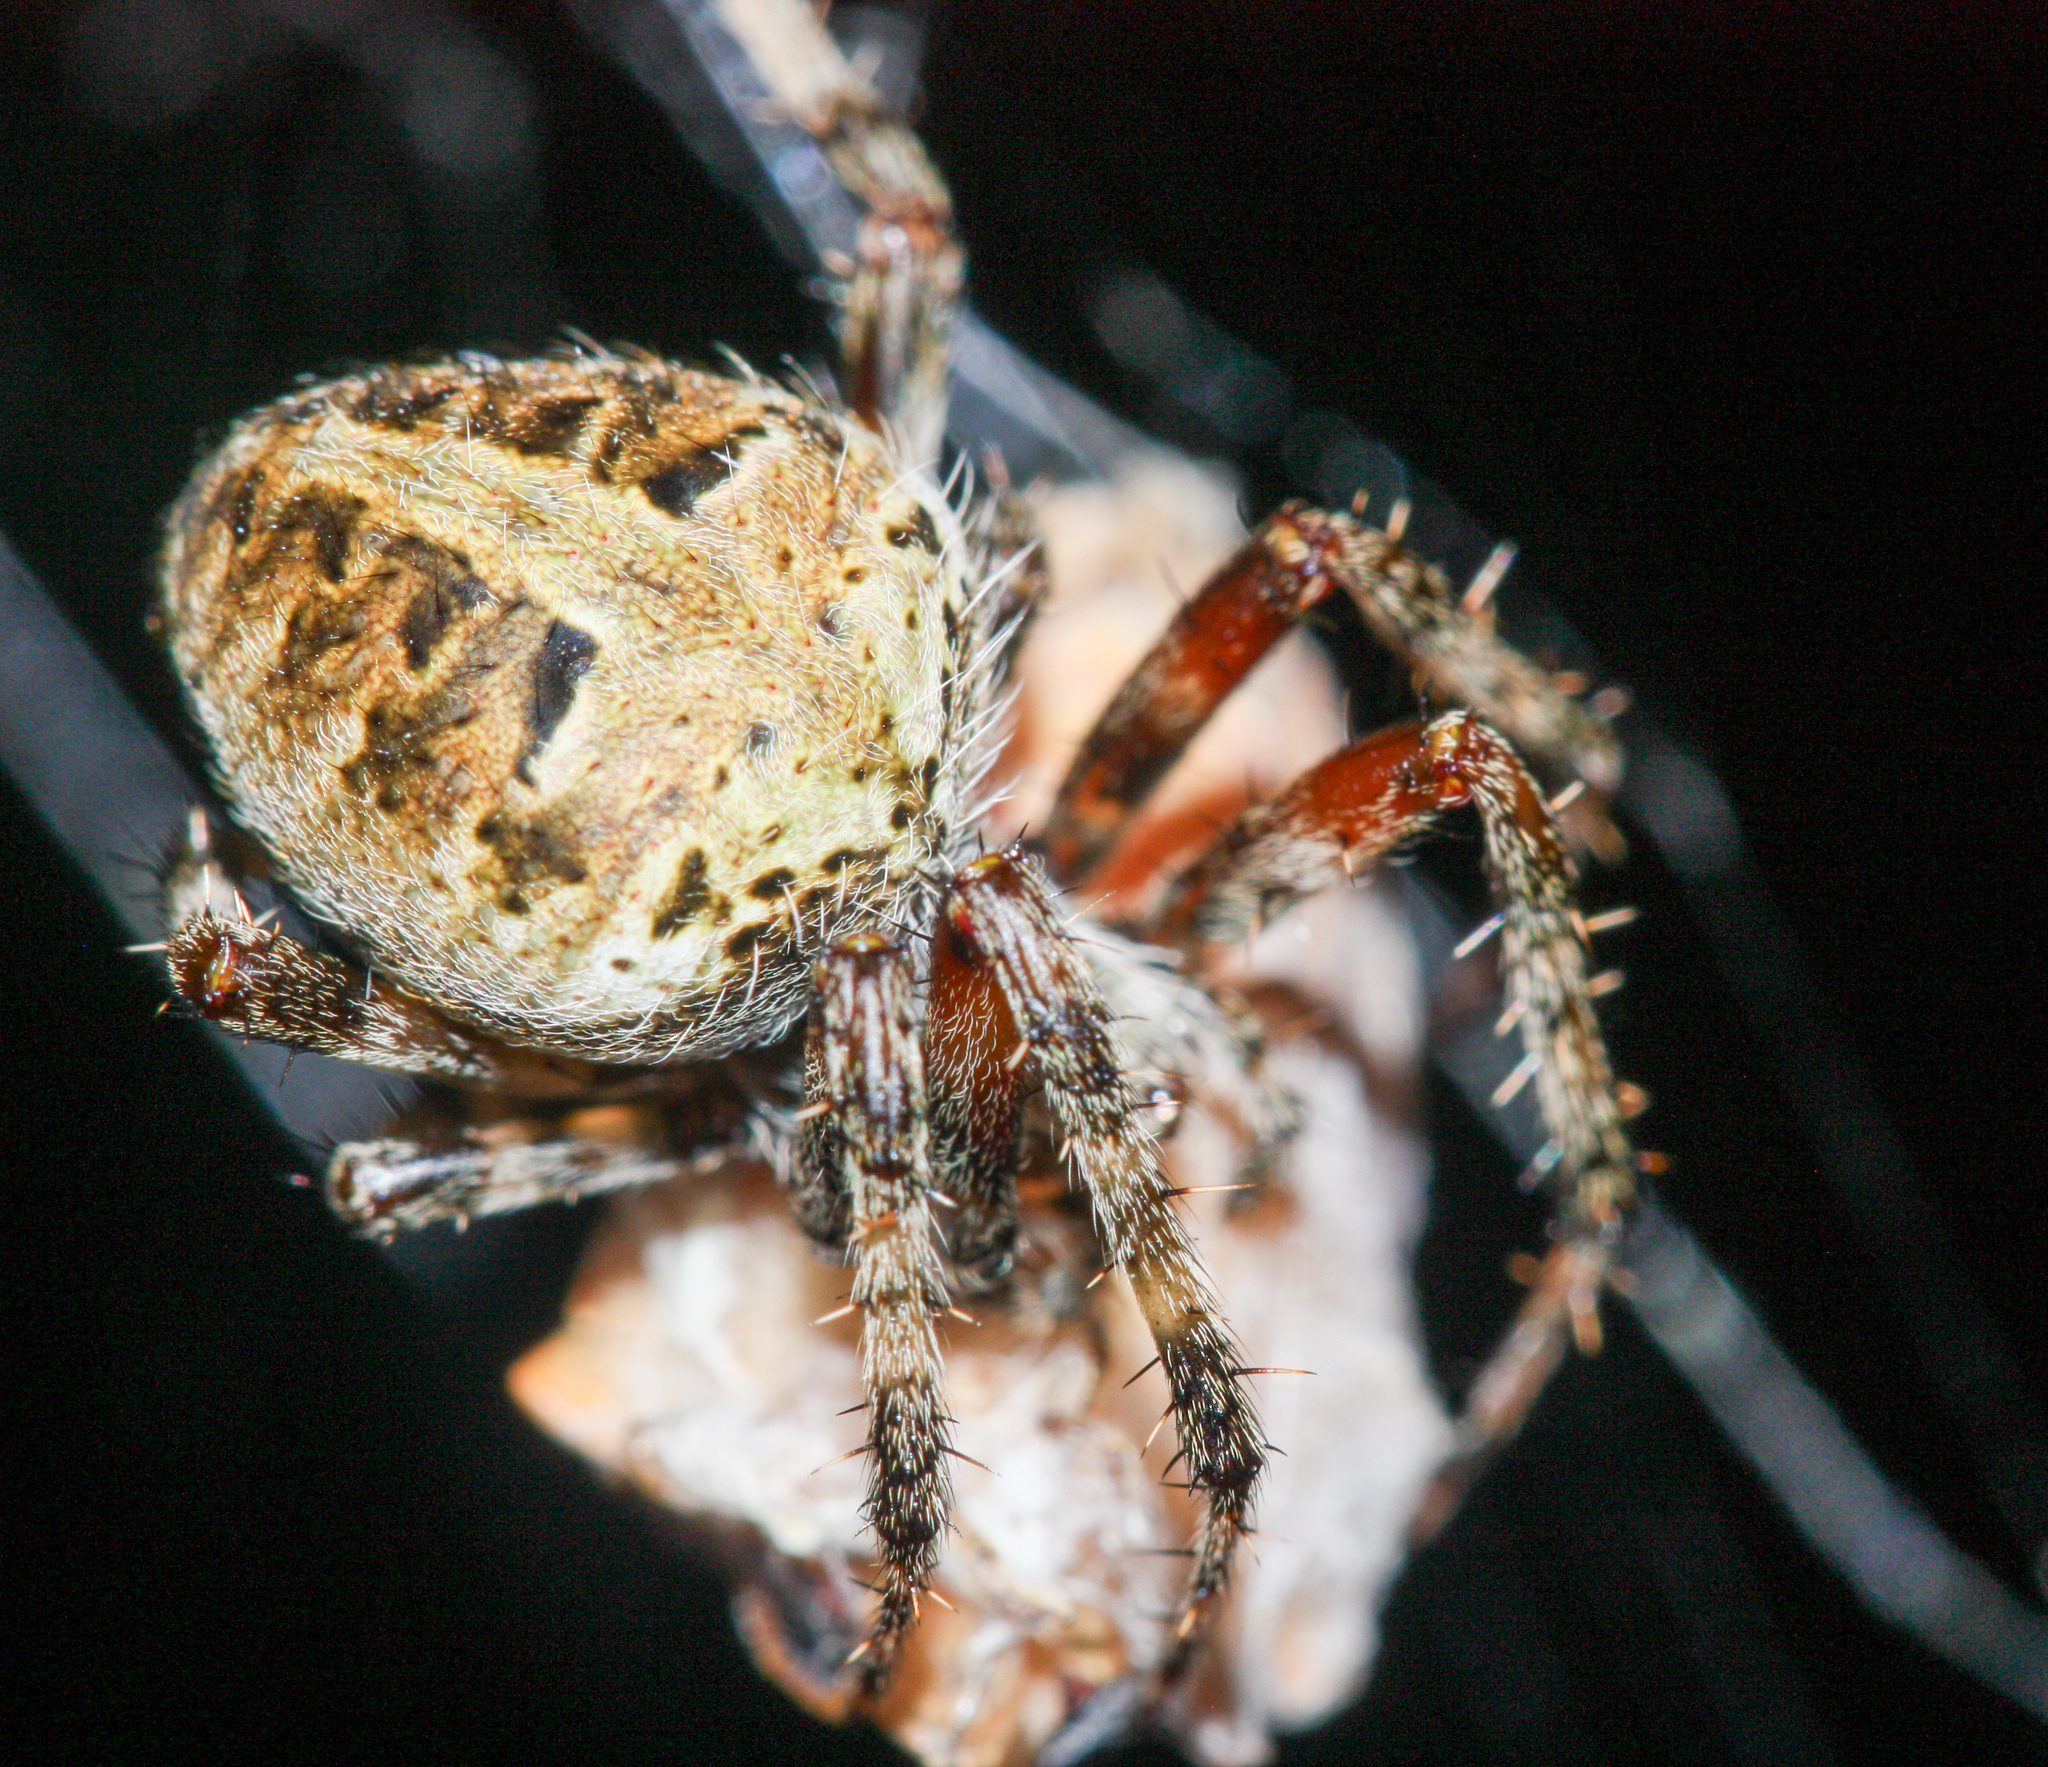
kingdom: Animalia
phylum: Arthropoda
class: Arachnida
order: Araneae
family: Araneidae
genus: Neoscona
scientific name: Neoscona domiciliorum
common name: Red-femured spotted orbweaver
